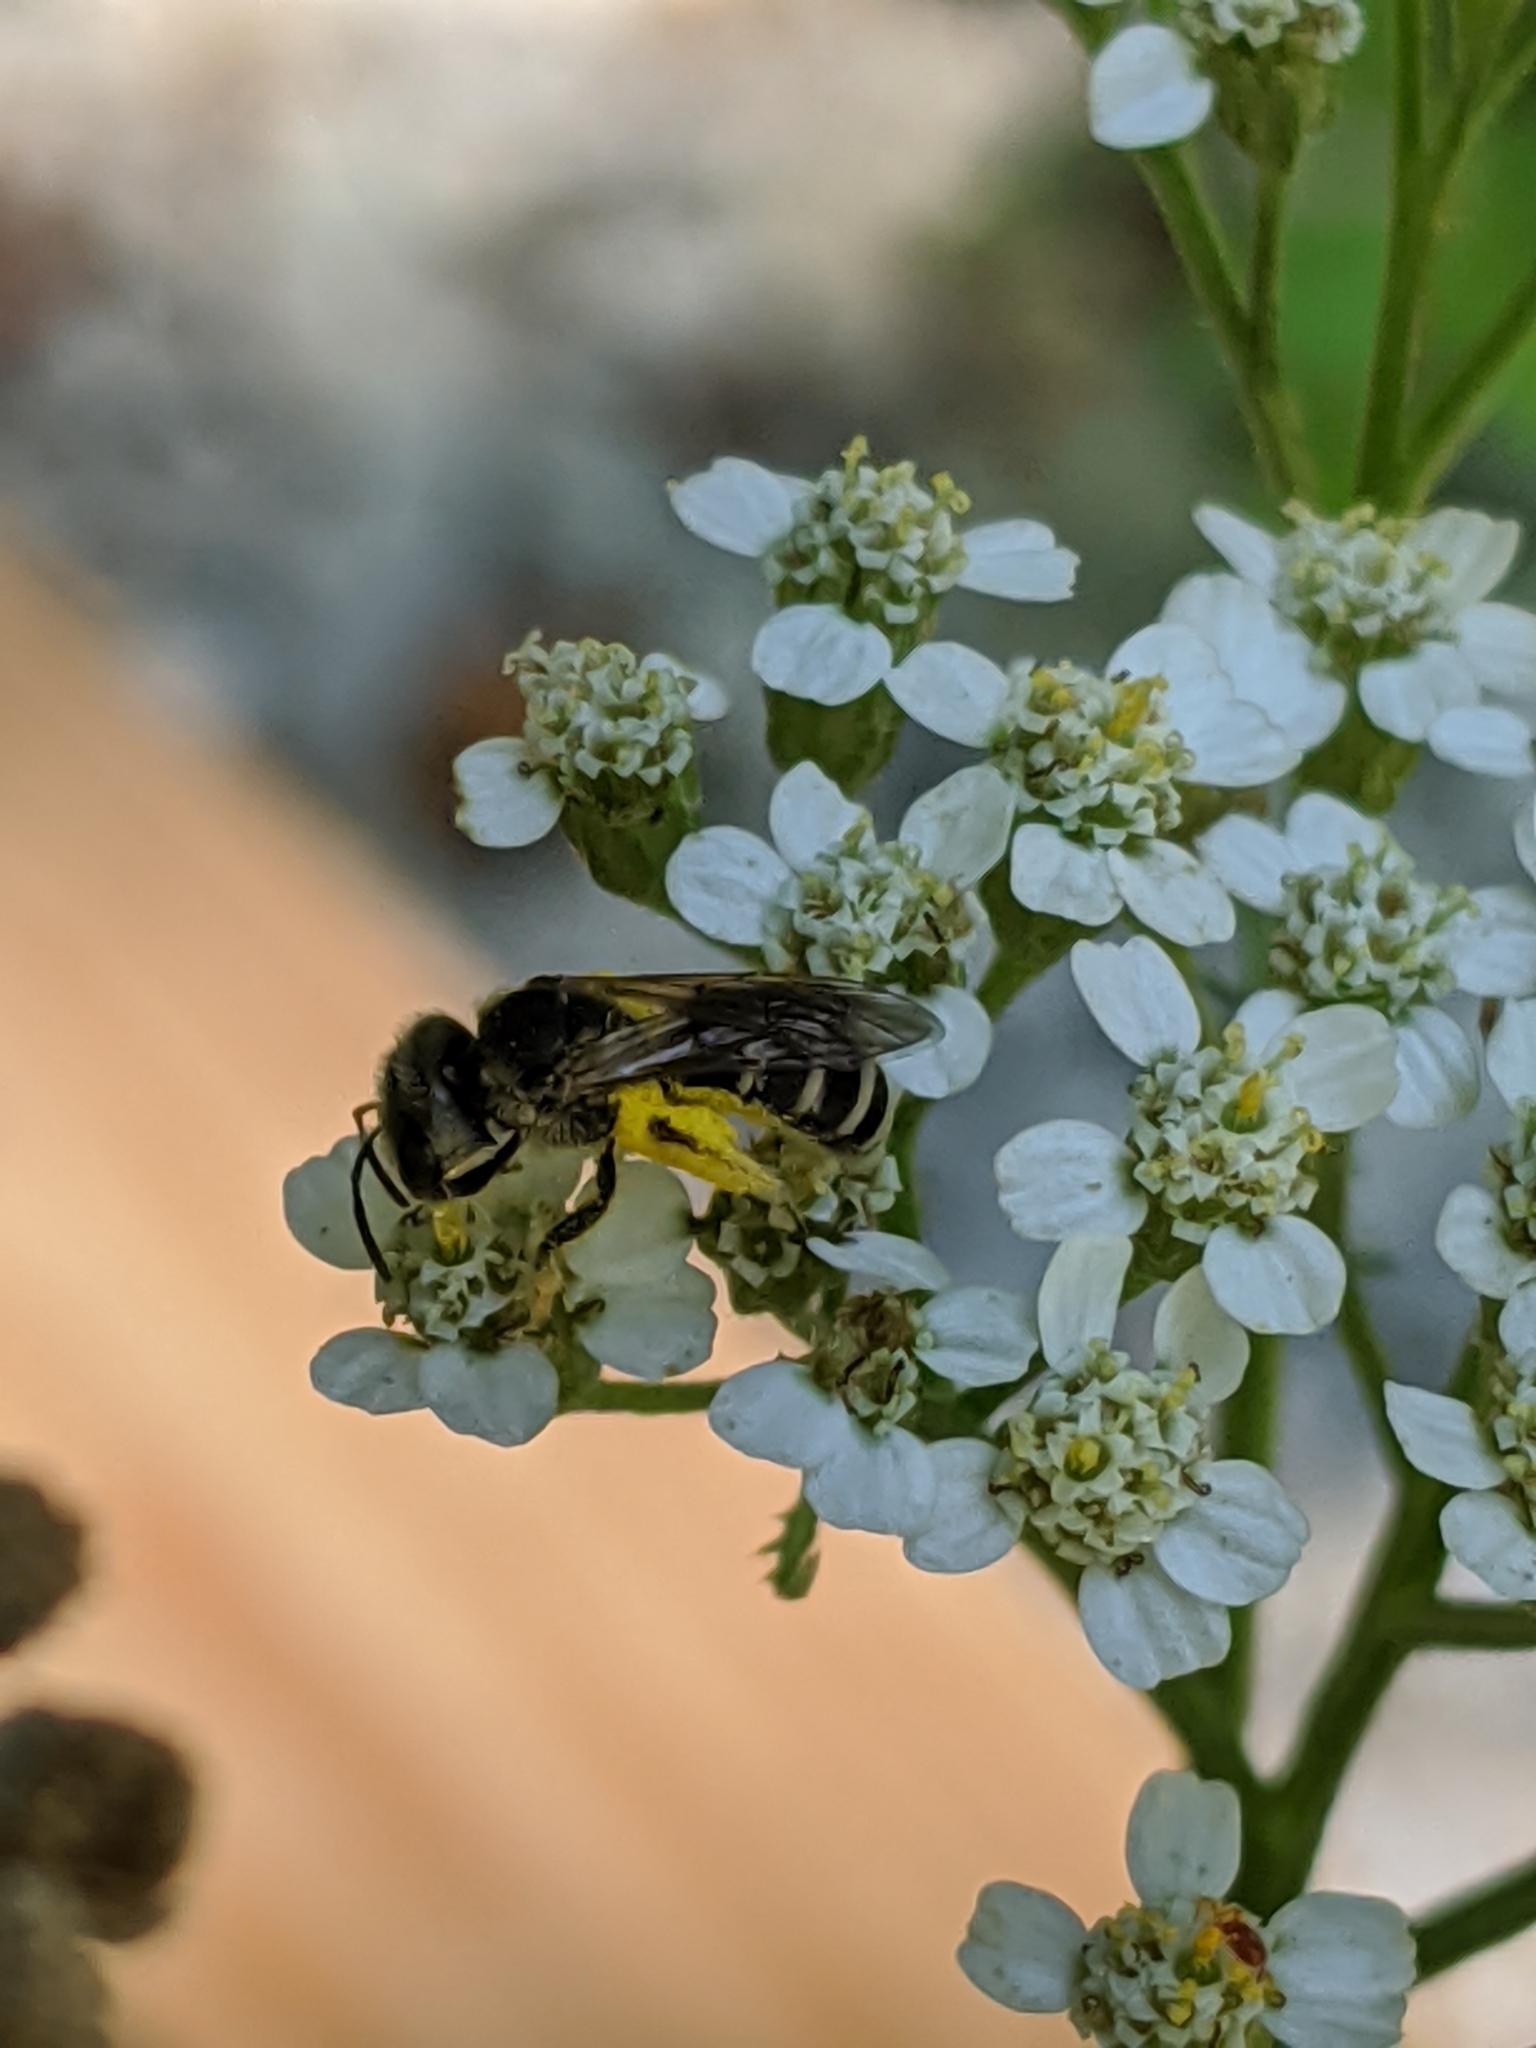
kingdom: Animalia
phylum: Arthropoda
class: Insecta
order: Hymenoptera
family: Halictidae
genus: Halictus
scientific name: Halictus ligatus
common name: Ligated furrow bee
